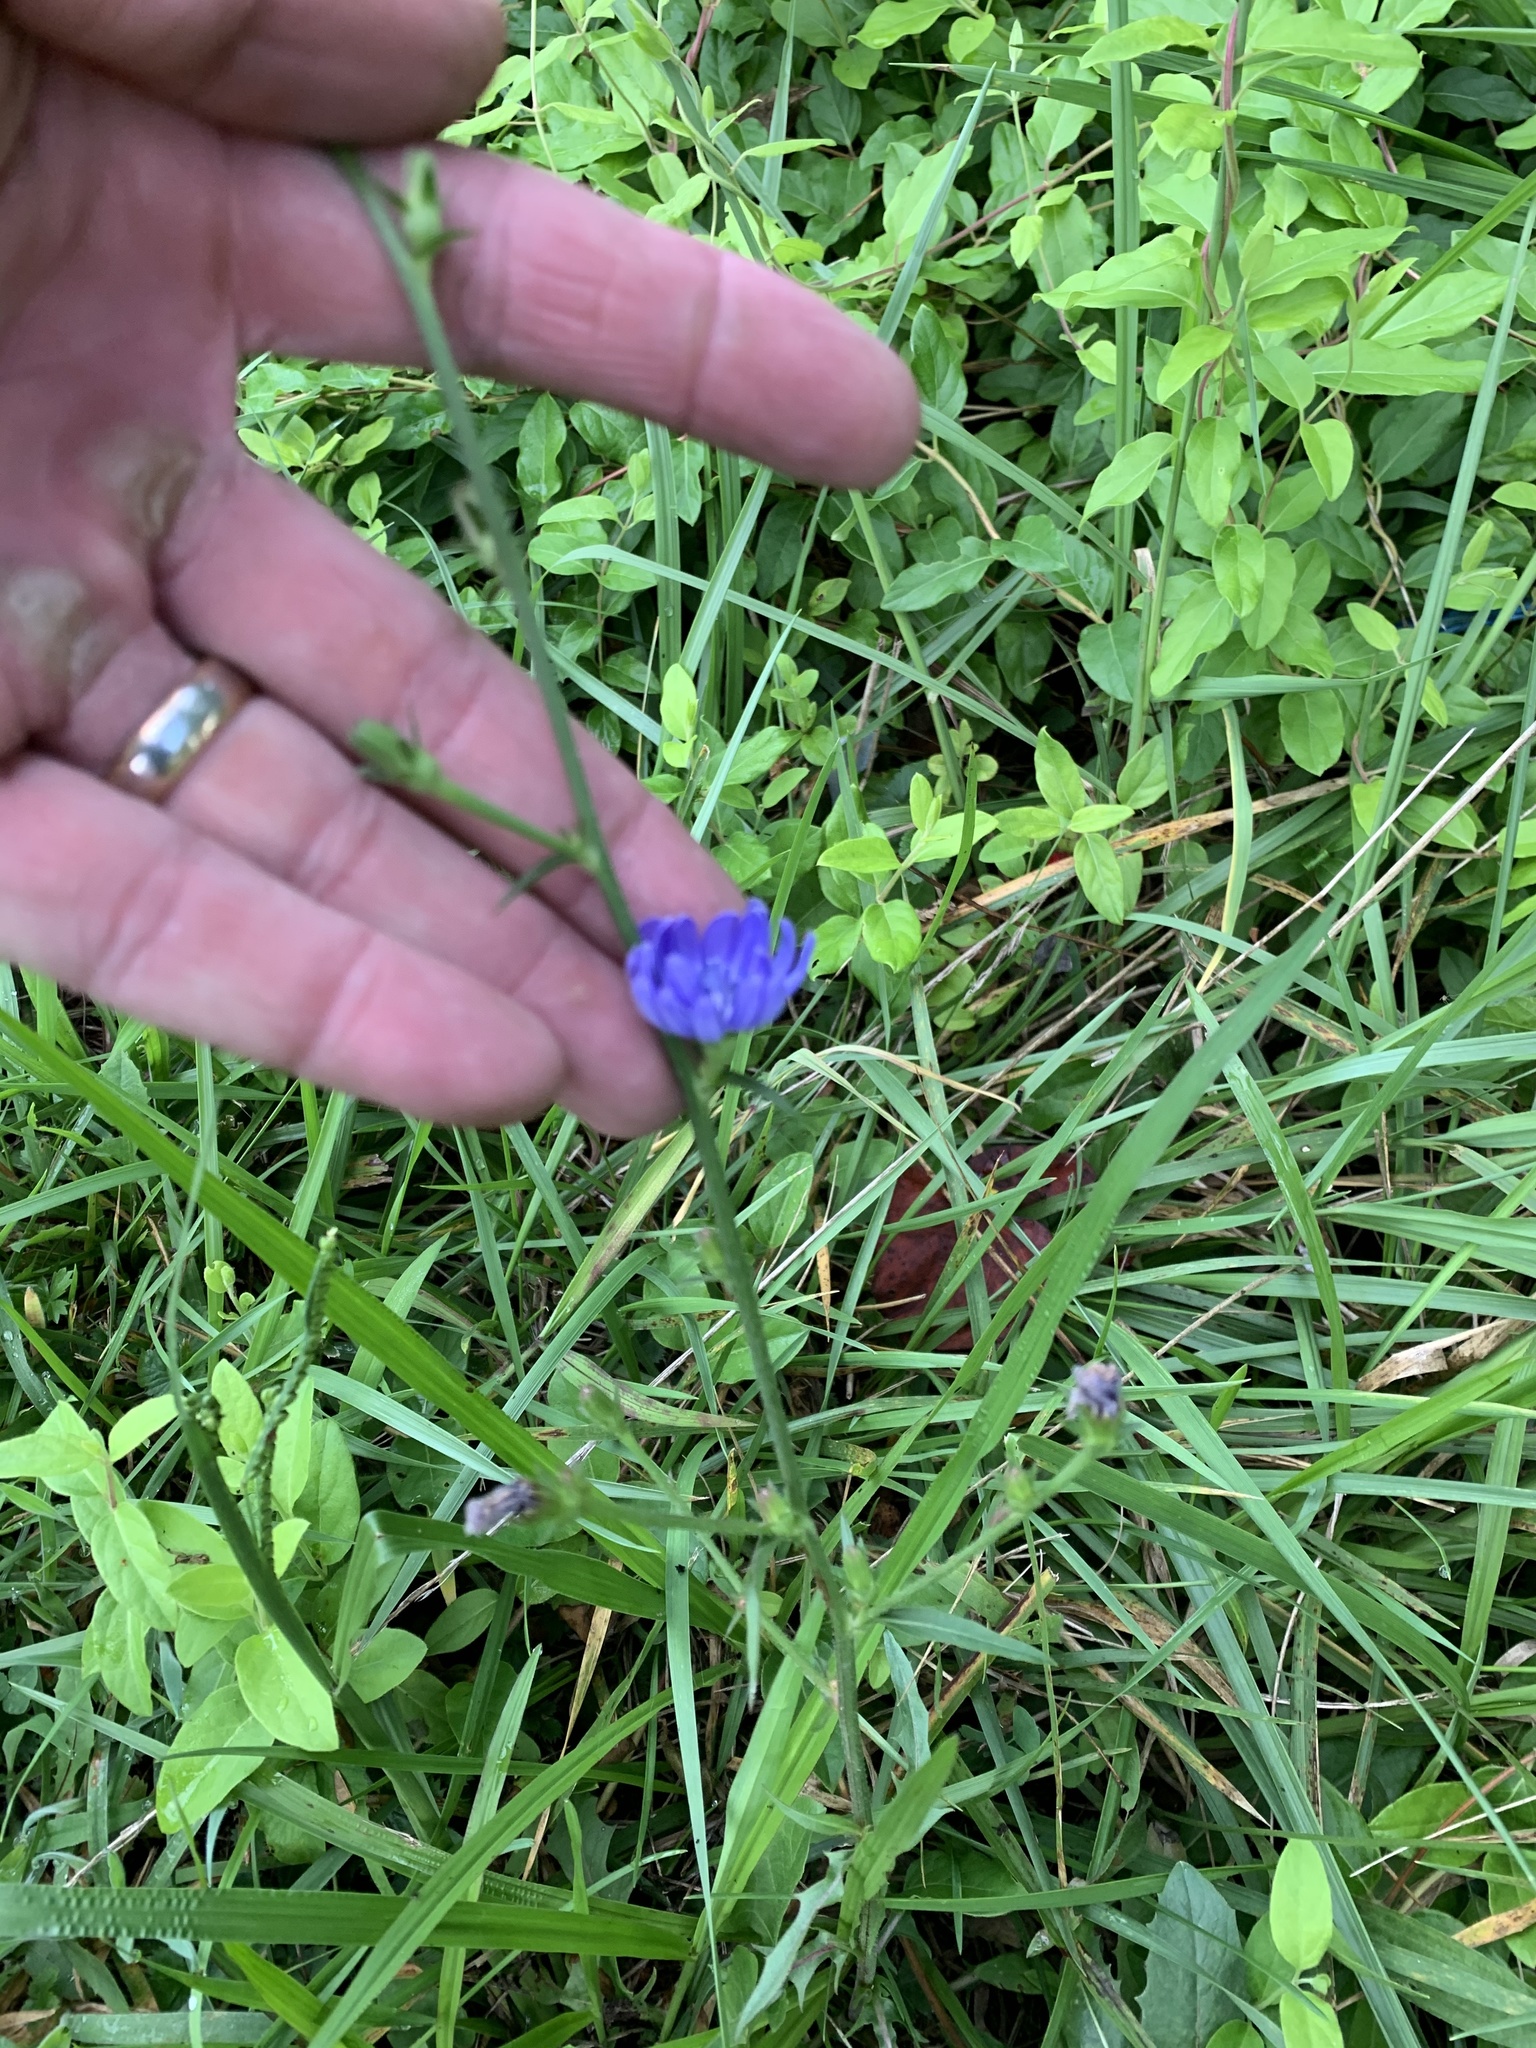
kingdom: Plantae
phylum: Tracheophyta
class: Magnoliopsida
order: Asterales
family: Asteraceae
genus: Cichorium
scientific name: Cichorium intybus
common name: Chicory
